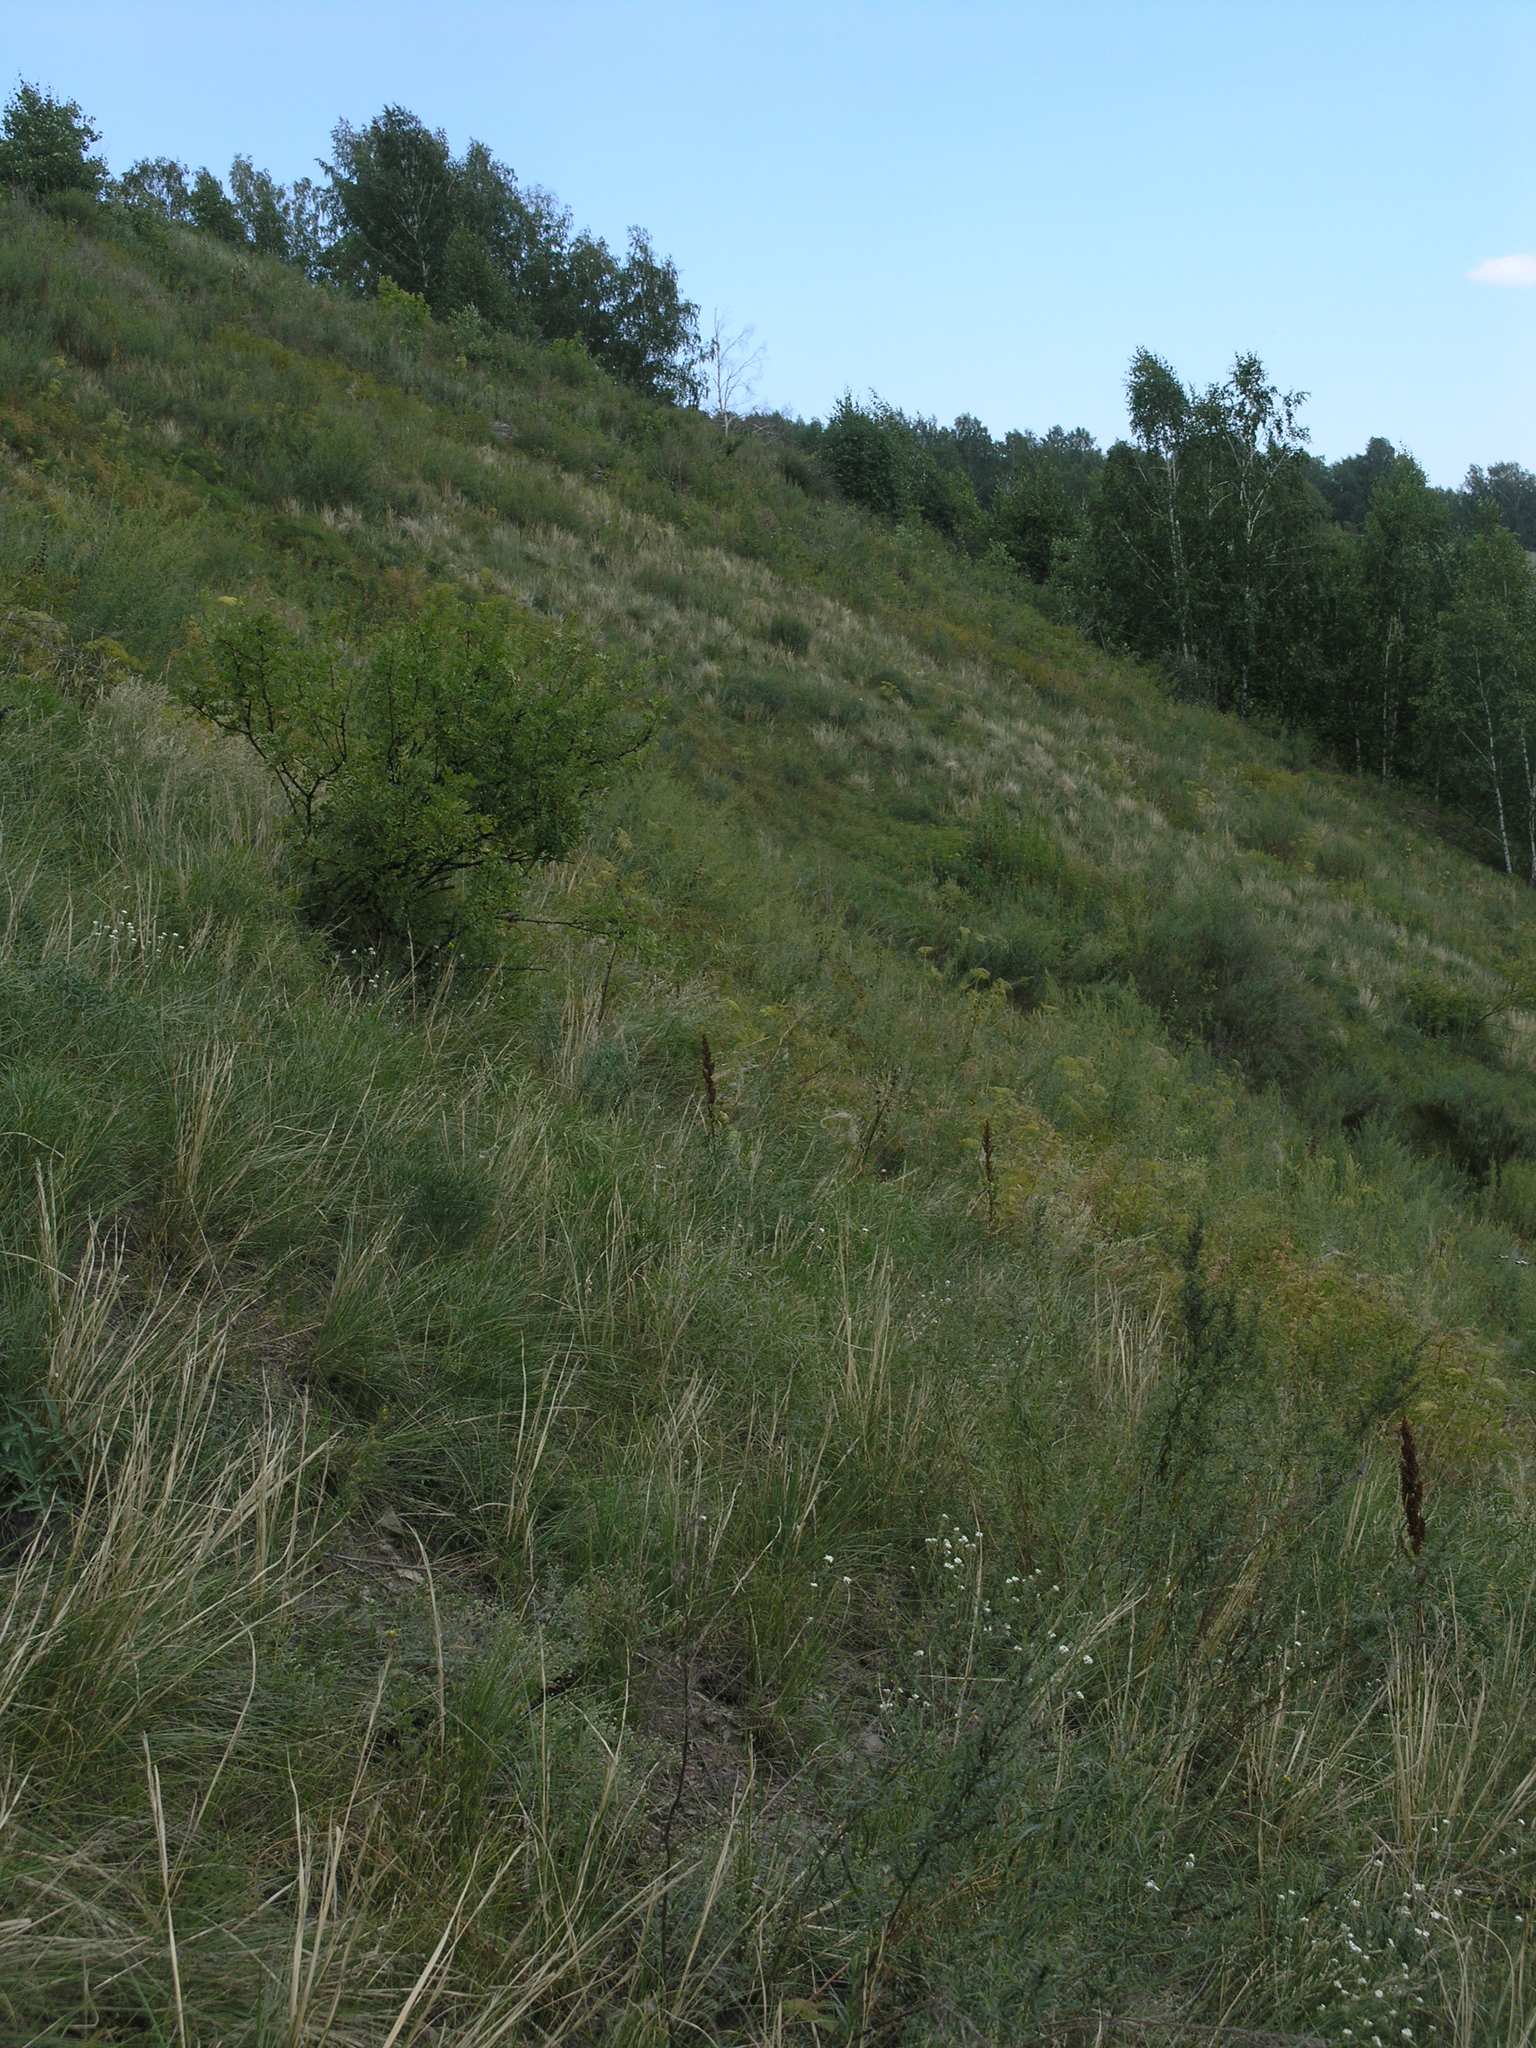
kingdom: Plantae
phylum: Tracheophyta
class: Liliopsida
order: Poales
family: Poaceae
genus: Stipa
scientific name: Stipa pennata
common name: European feather grass
